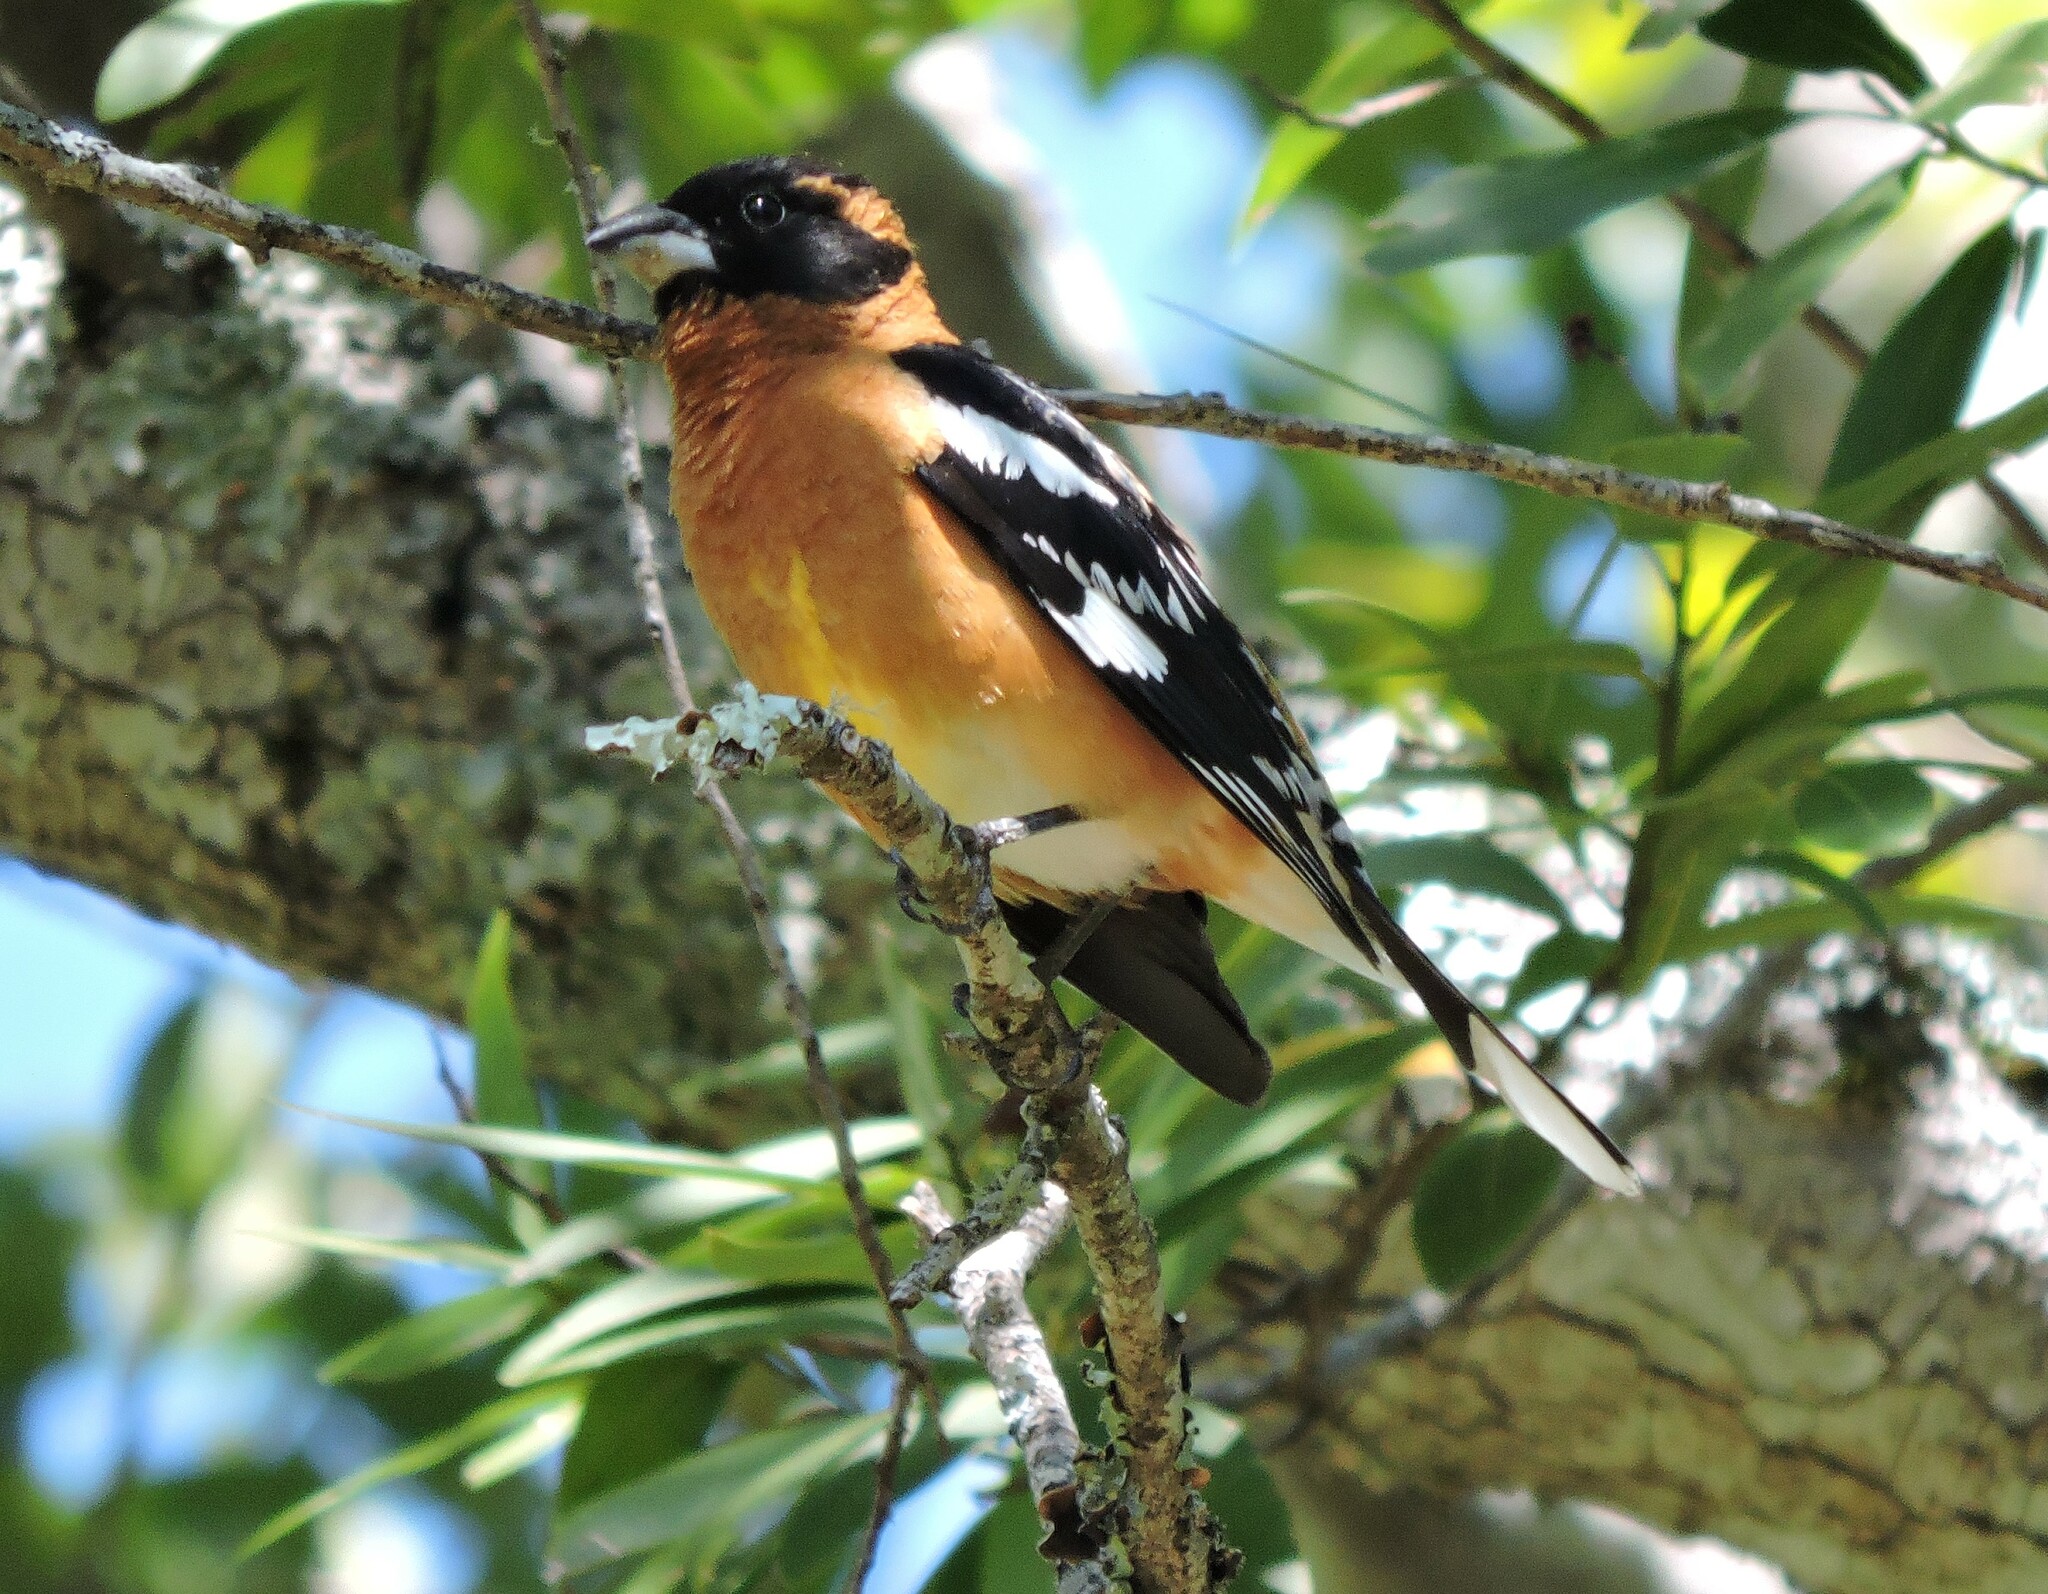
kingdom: Animalia
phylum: Chordata
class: Aves
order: Passeriformes
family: Cardinalidae
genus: Pheucticus
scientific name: Pheucticus melanocephalus
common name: Black-headed grosbeak
